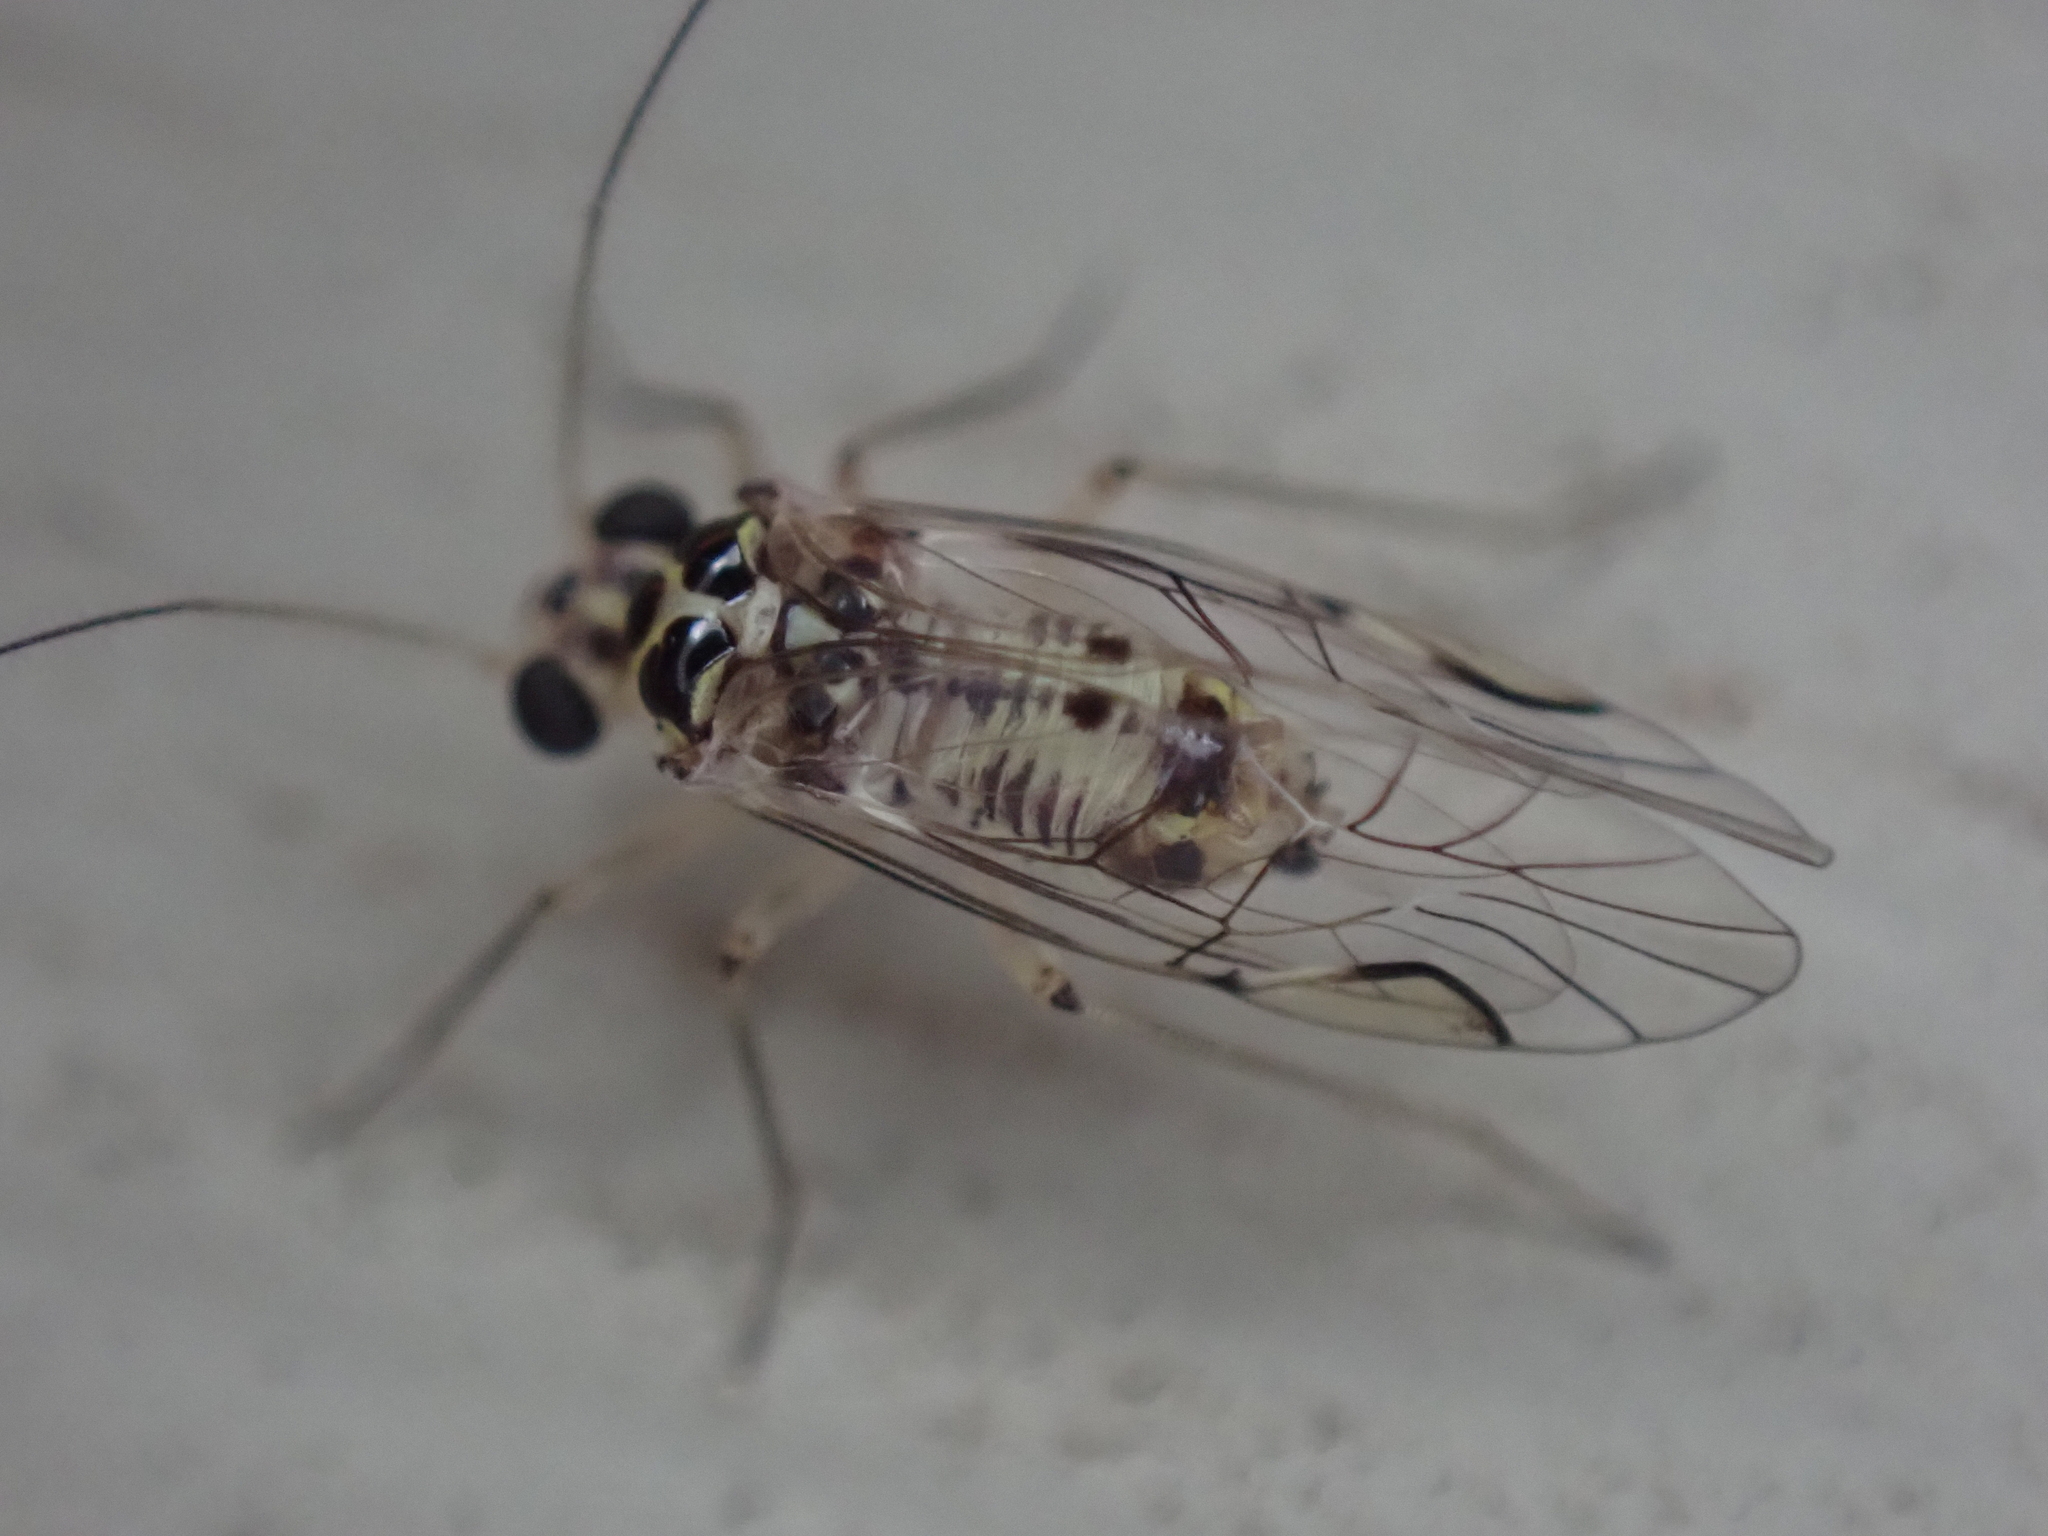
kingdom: Animalia
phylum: Arthropoda
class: Insecta
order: Psocodea
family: Psocidae
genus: Metylophorus
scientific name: Metylophorus purus
